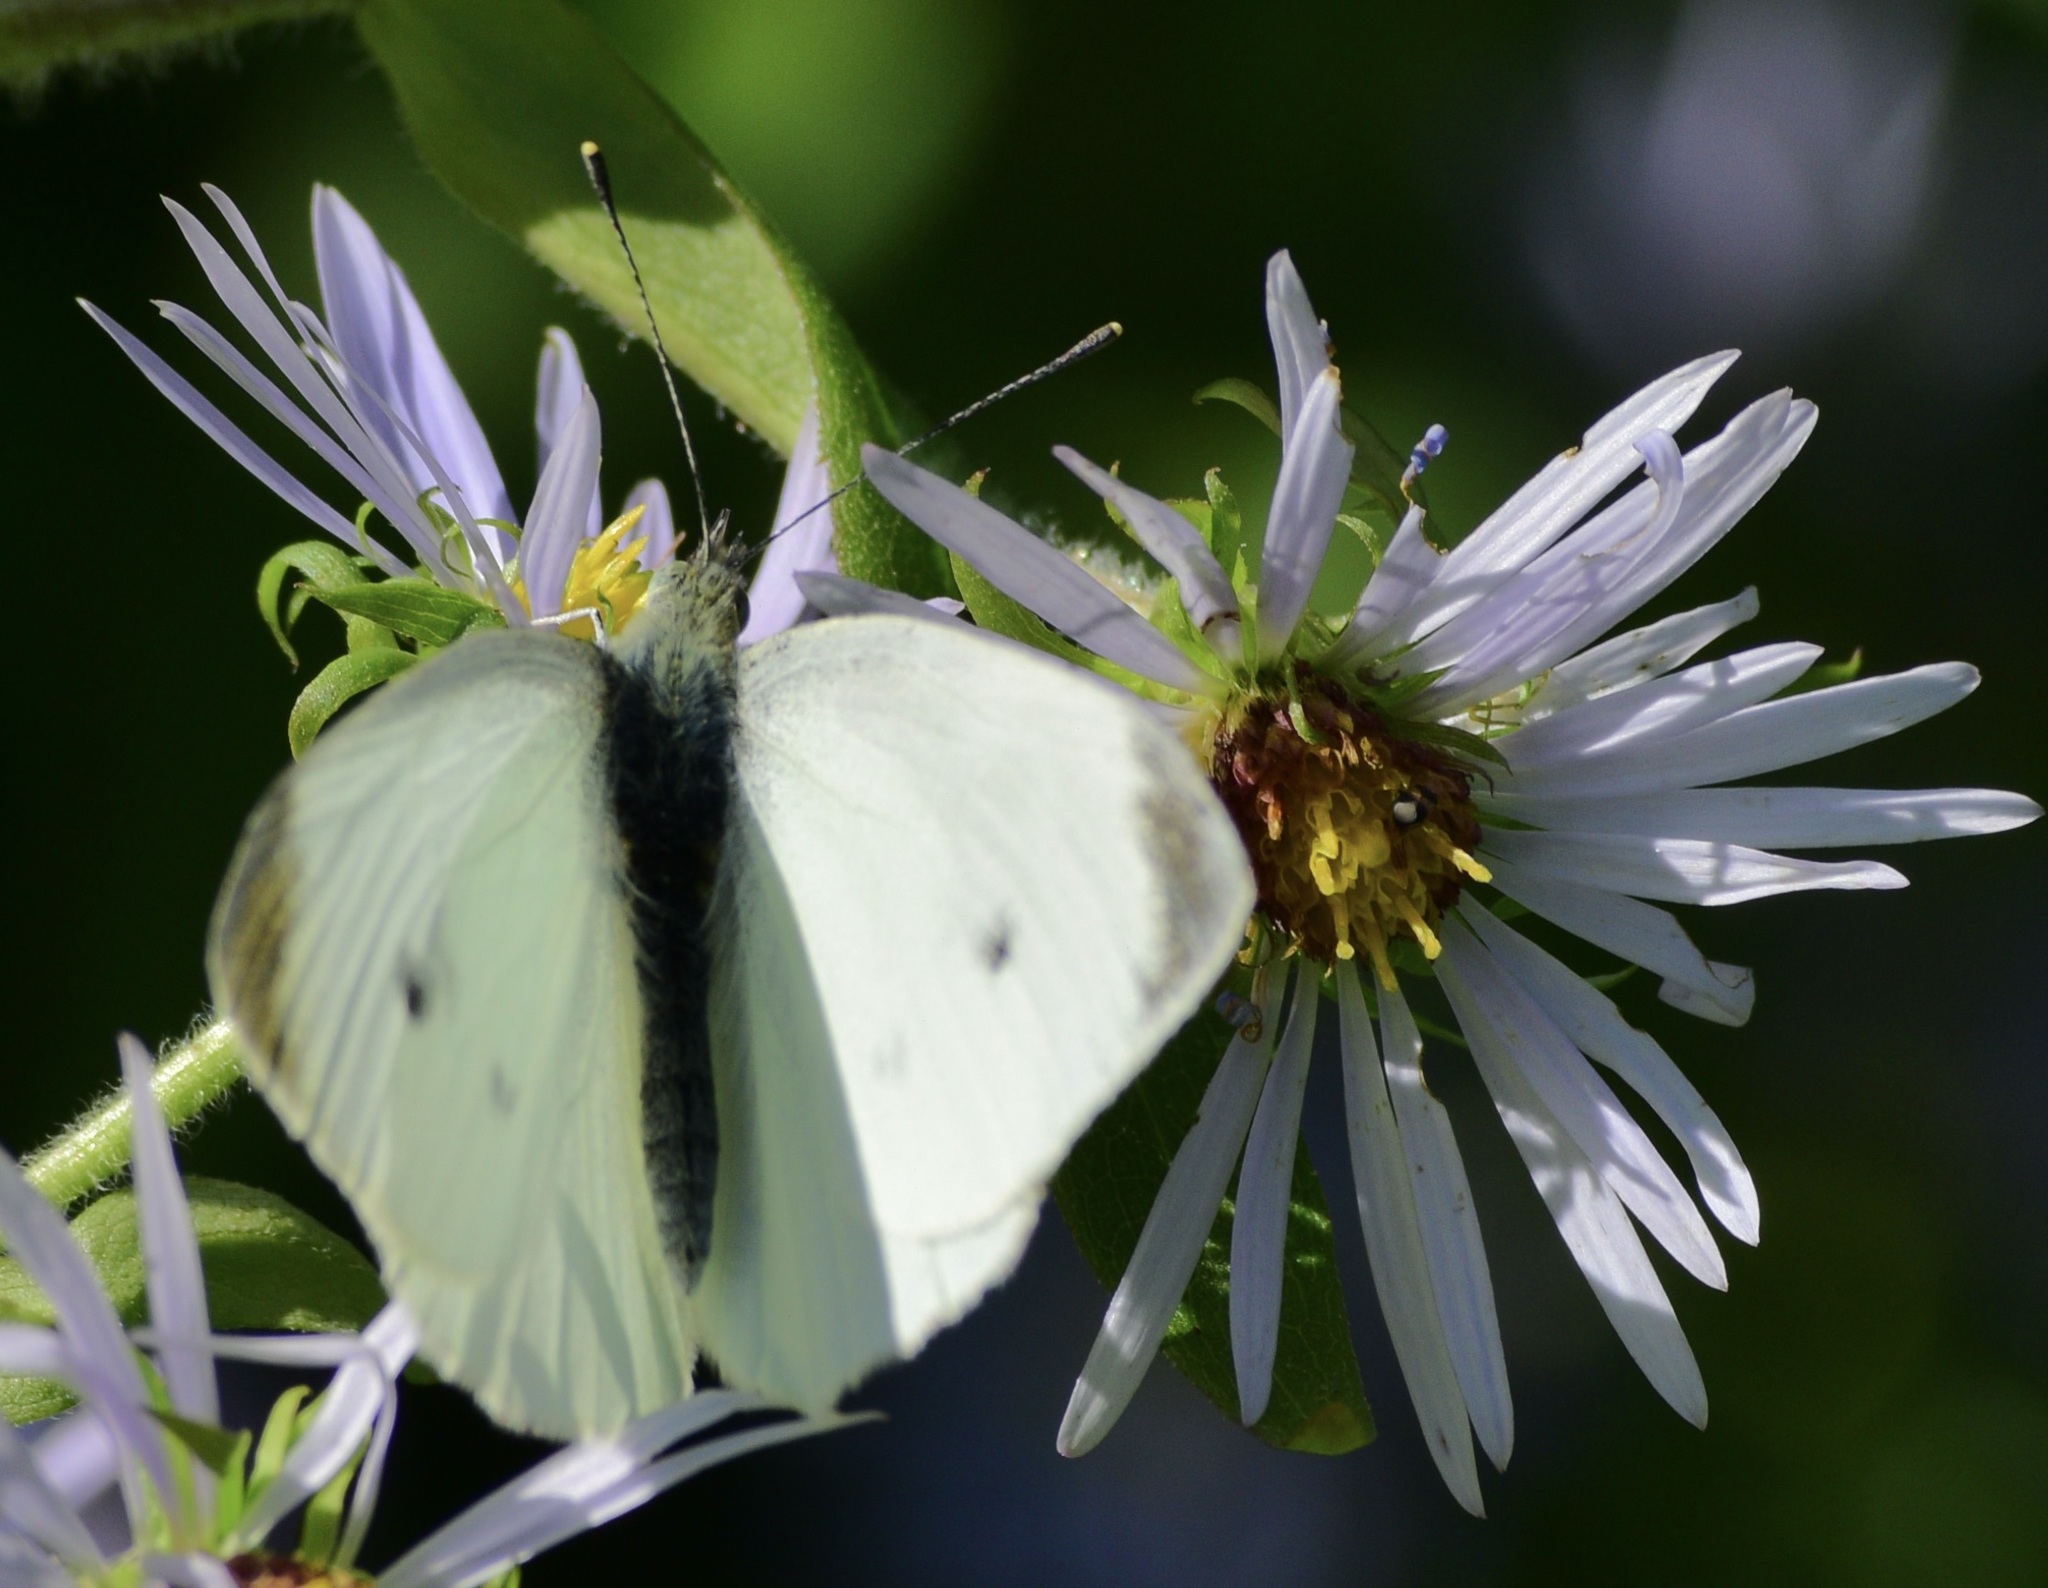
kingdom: Animalia
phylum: Arthropoda
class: Insecta
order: Lepidoptera
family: Pieridae
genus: Pieris
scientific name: Pieris rapae
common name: Small white
